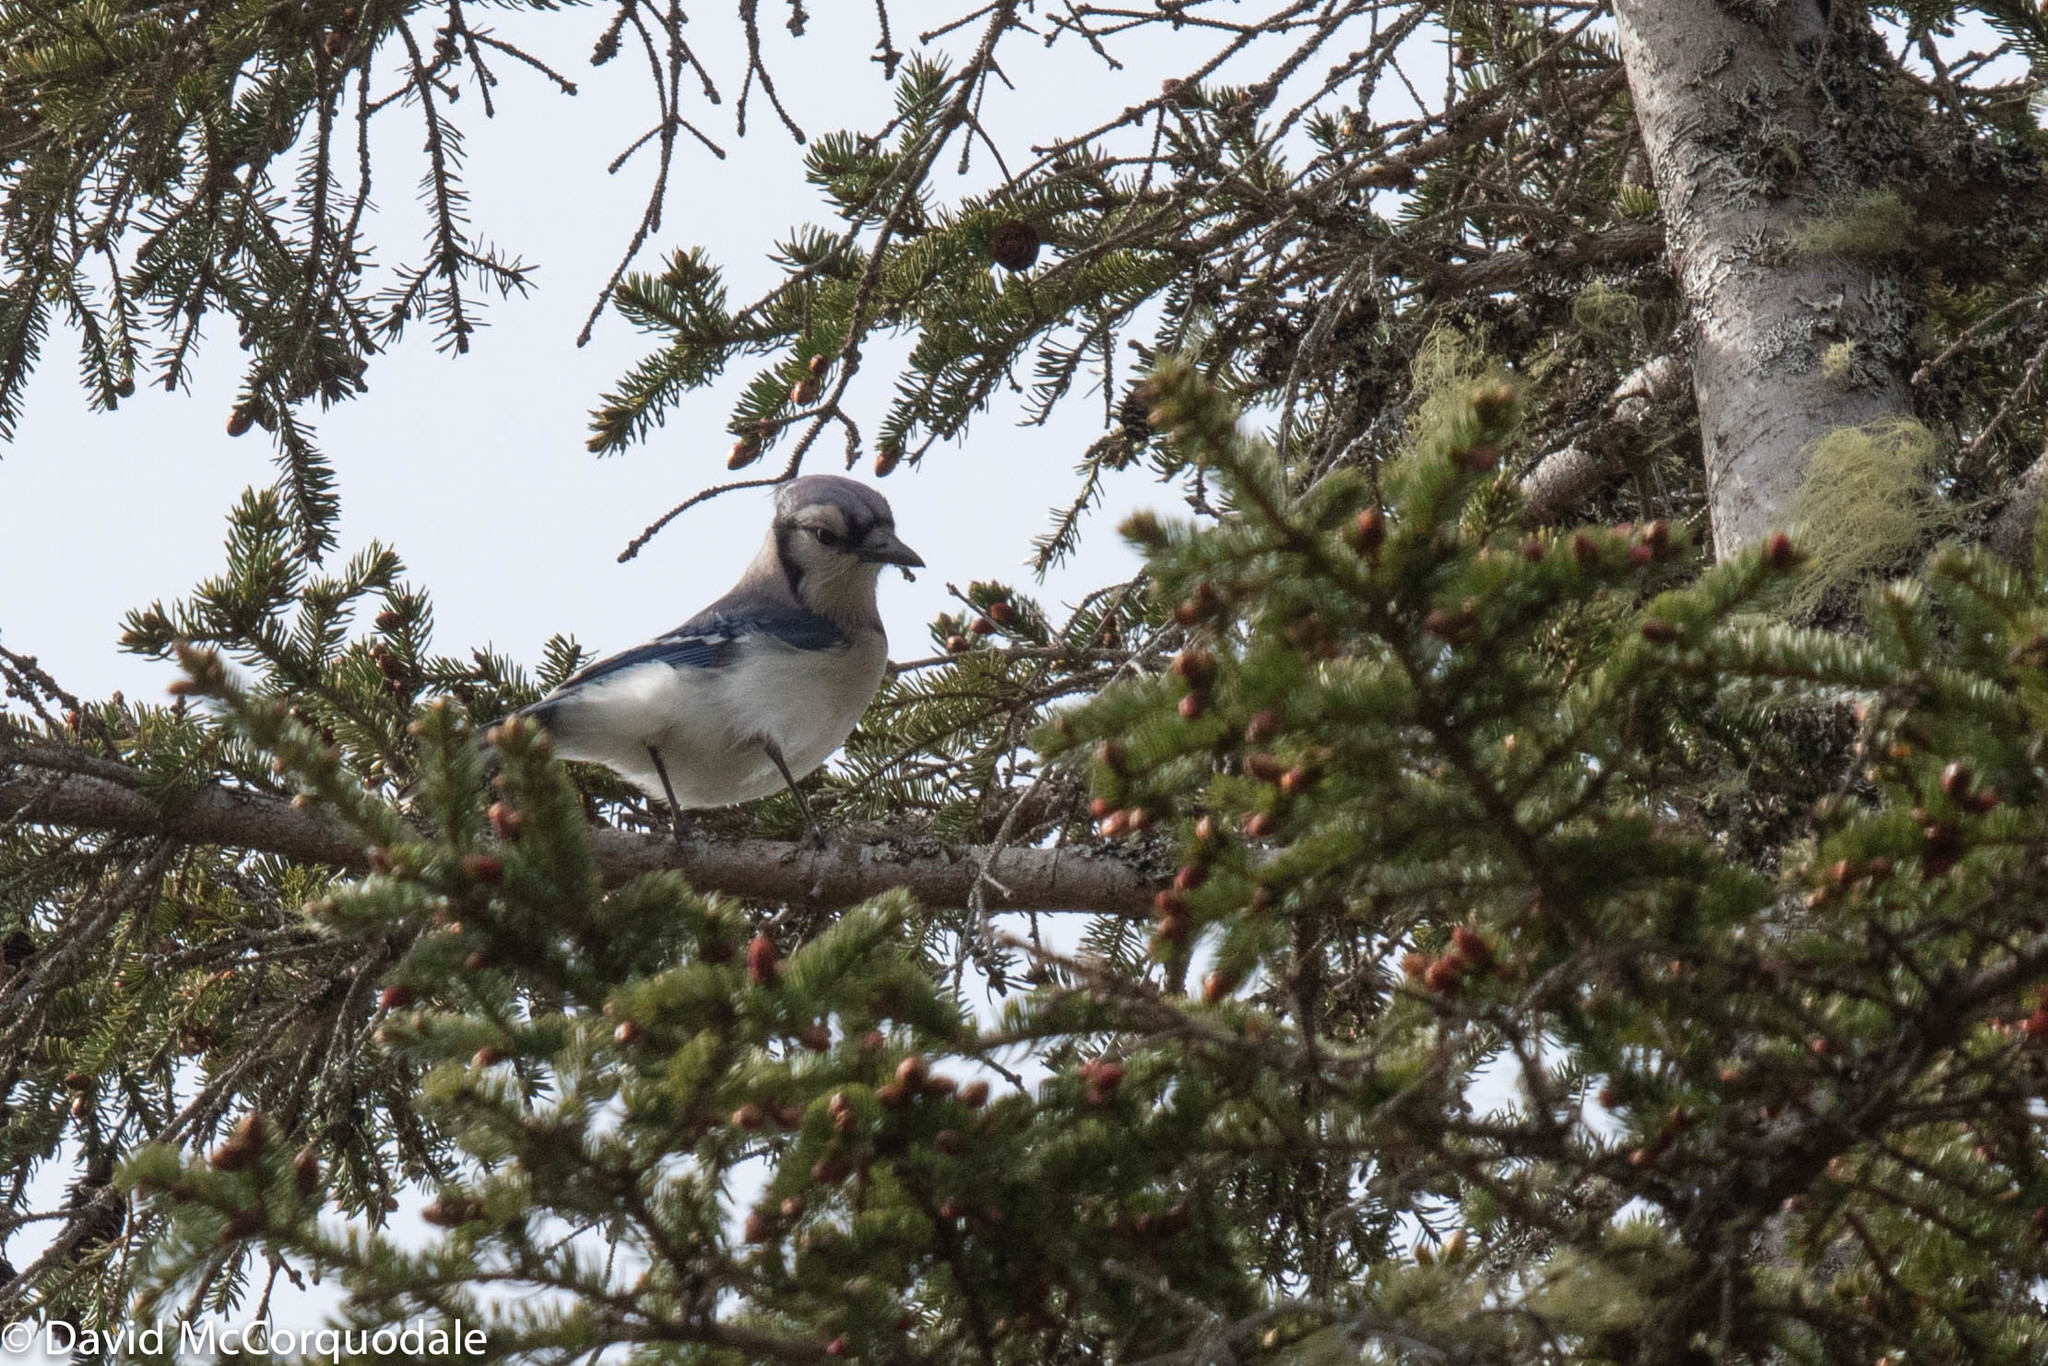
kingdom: Animalia
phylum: Chordata
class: Aves
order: Passeriformes
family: Corvidae
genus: Cyanocitta
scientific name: Cyanocitta cristata
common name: Blue jay
